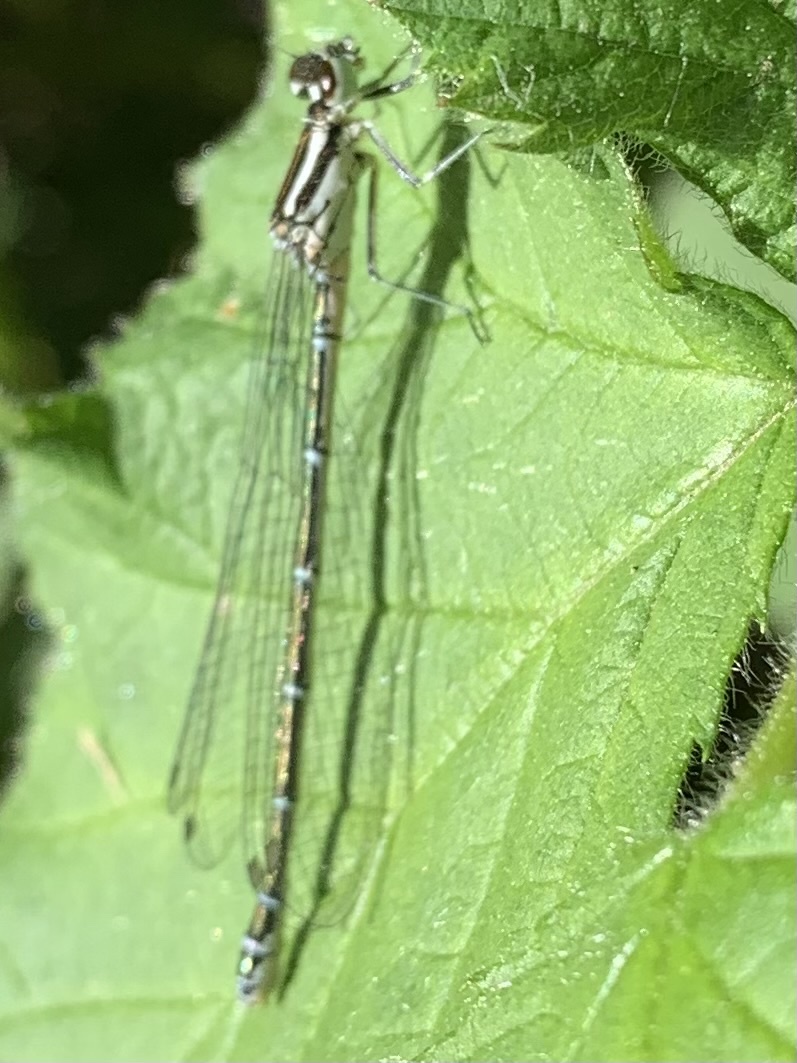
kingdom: Animalia
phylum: Arthropoda
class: Insecta
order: Odonata
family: Coenagrionidae
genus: Coenagrion
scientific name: Coenagrion puella
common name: Azure damselfly
